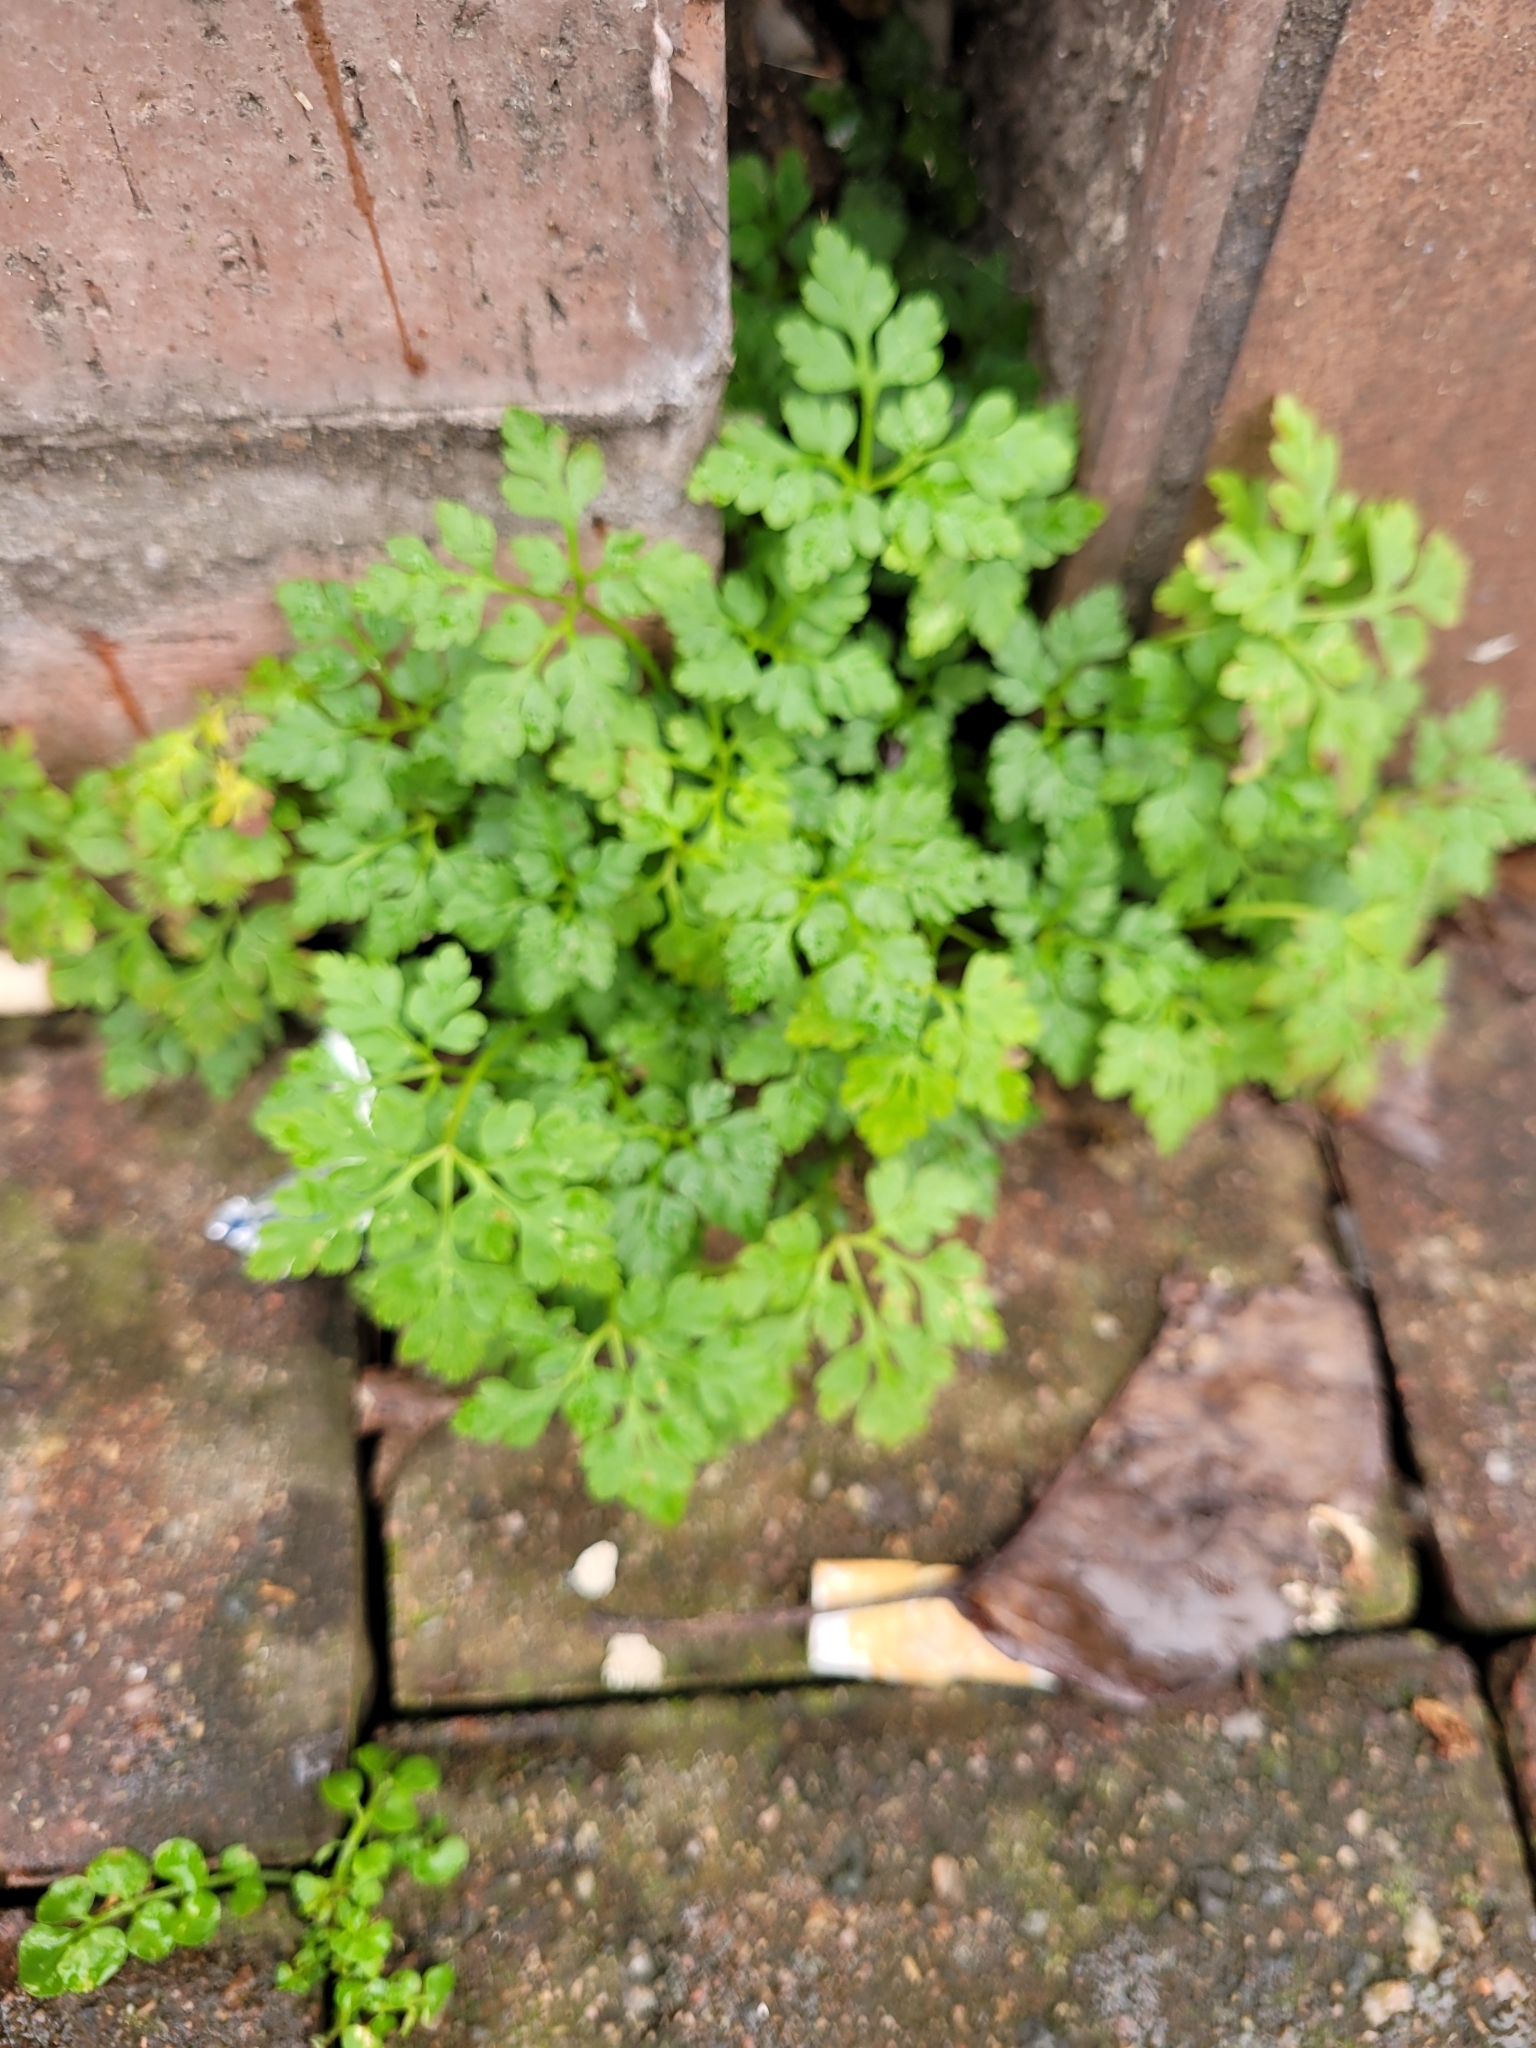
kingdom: Plantae
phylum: Tracheophyta
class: Magnoliopsida
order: Geraniales
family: Geraniaceae
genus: Geranium
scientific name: Geranium robertianum
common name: Herb-robert
